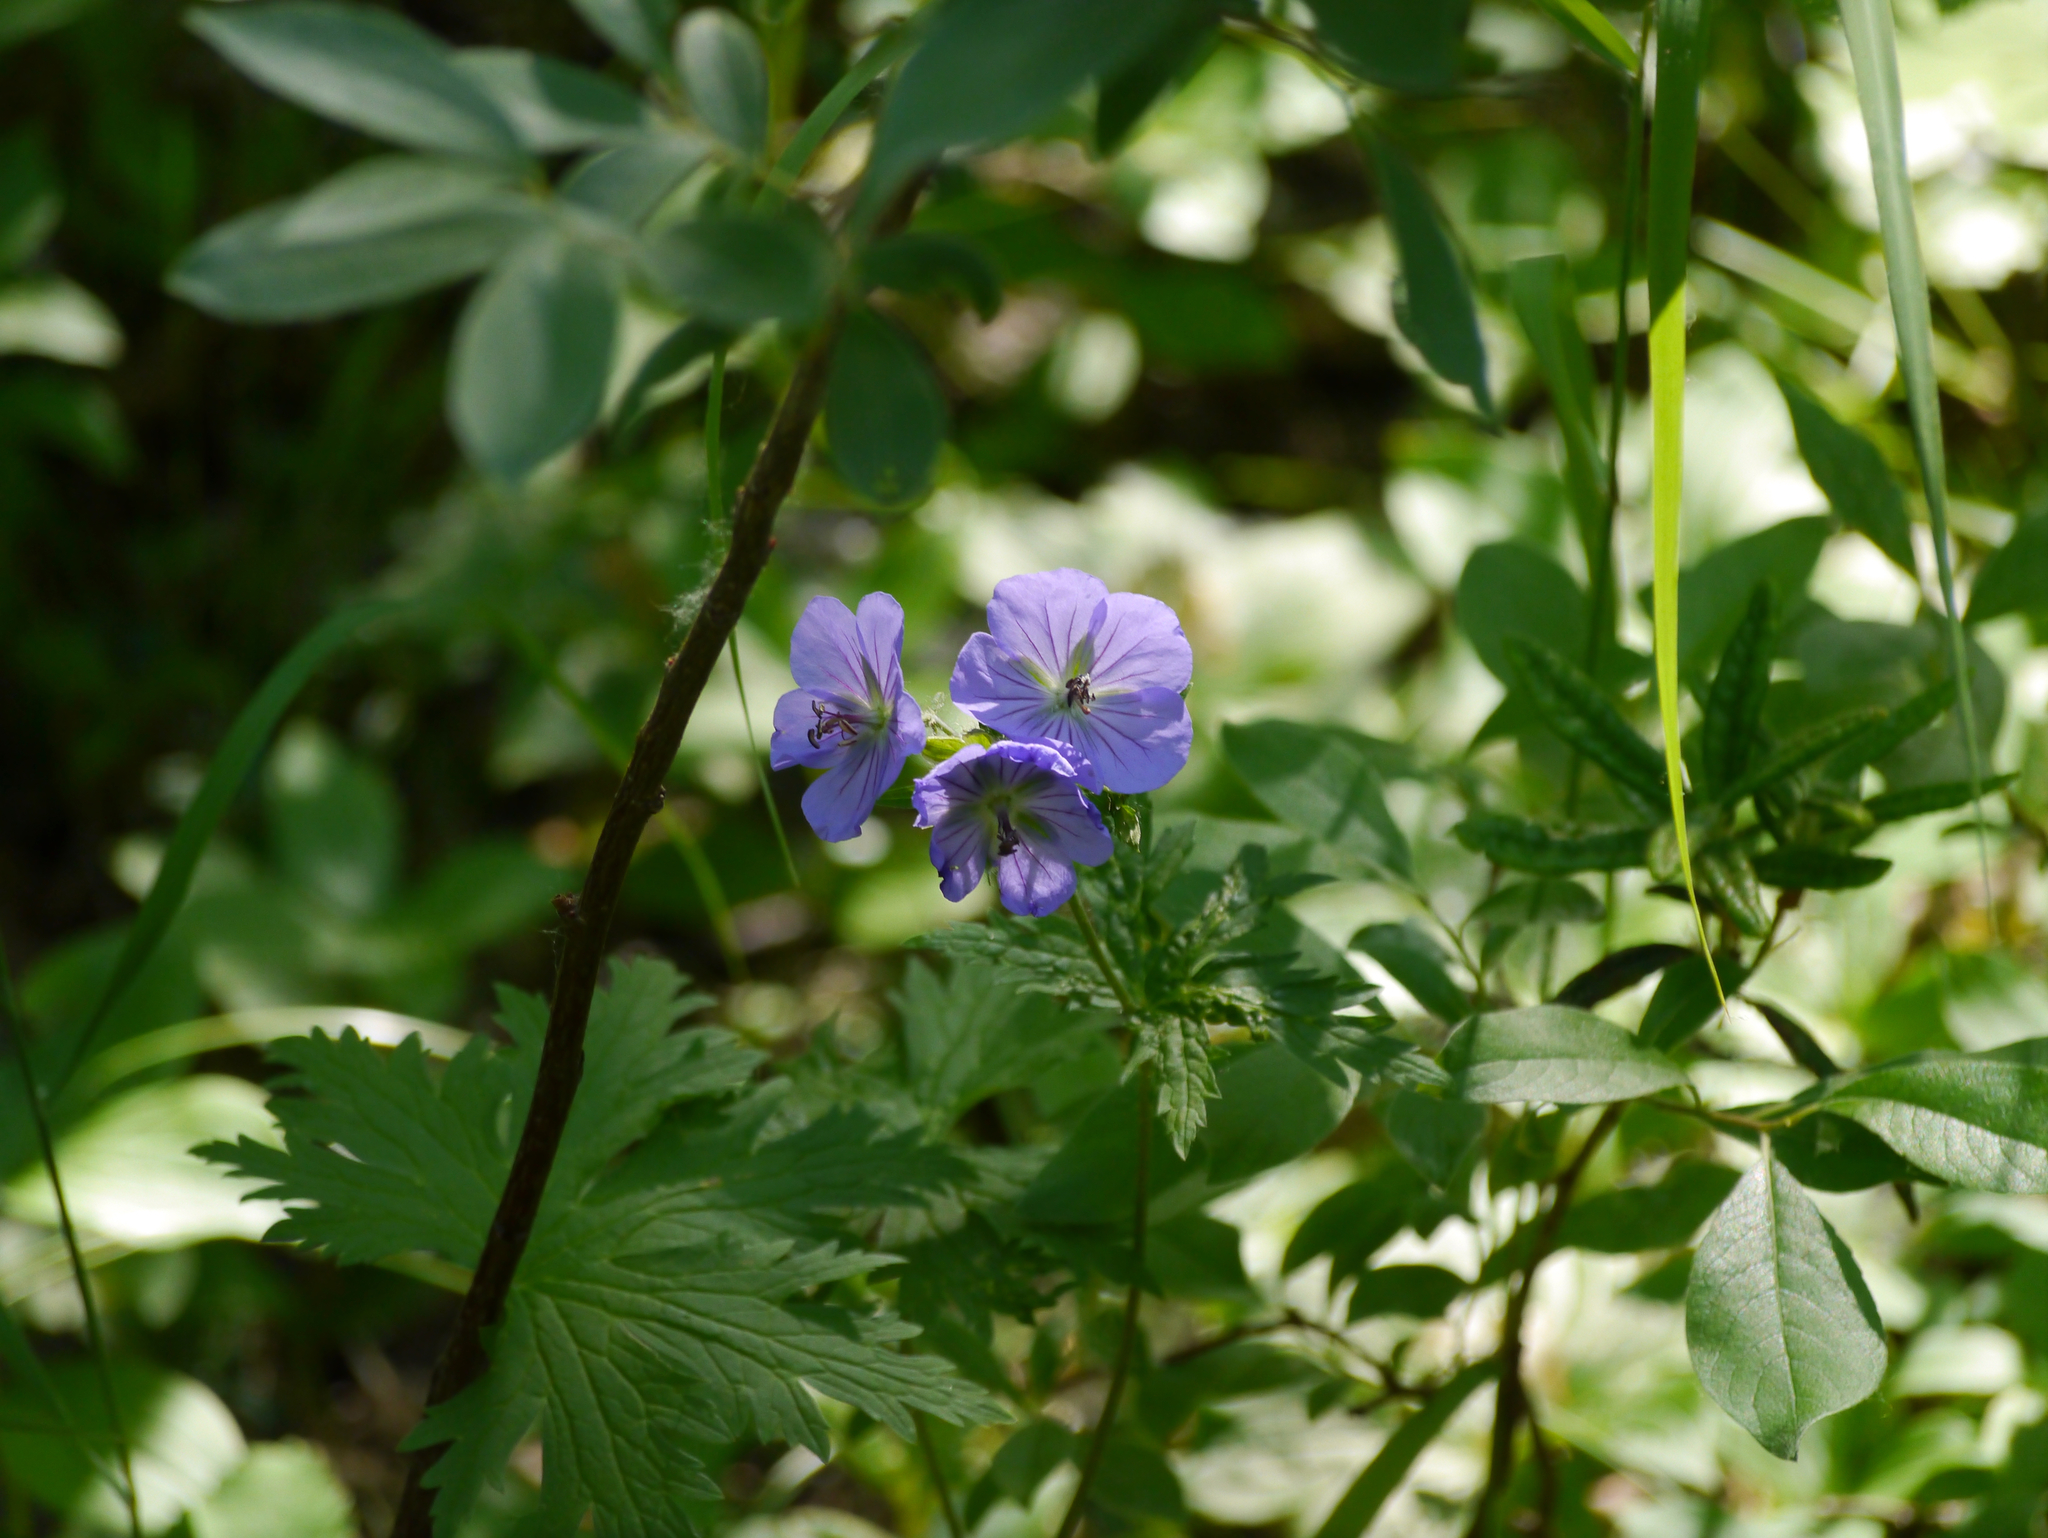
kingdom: Plantae
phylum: Tracheophyta
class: Magnoliopsida
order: Geraniales
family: Geraniaceae
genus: Geranium
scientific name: Geranium erianthum
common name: Northern crane's-bill
